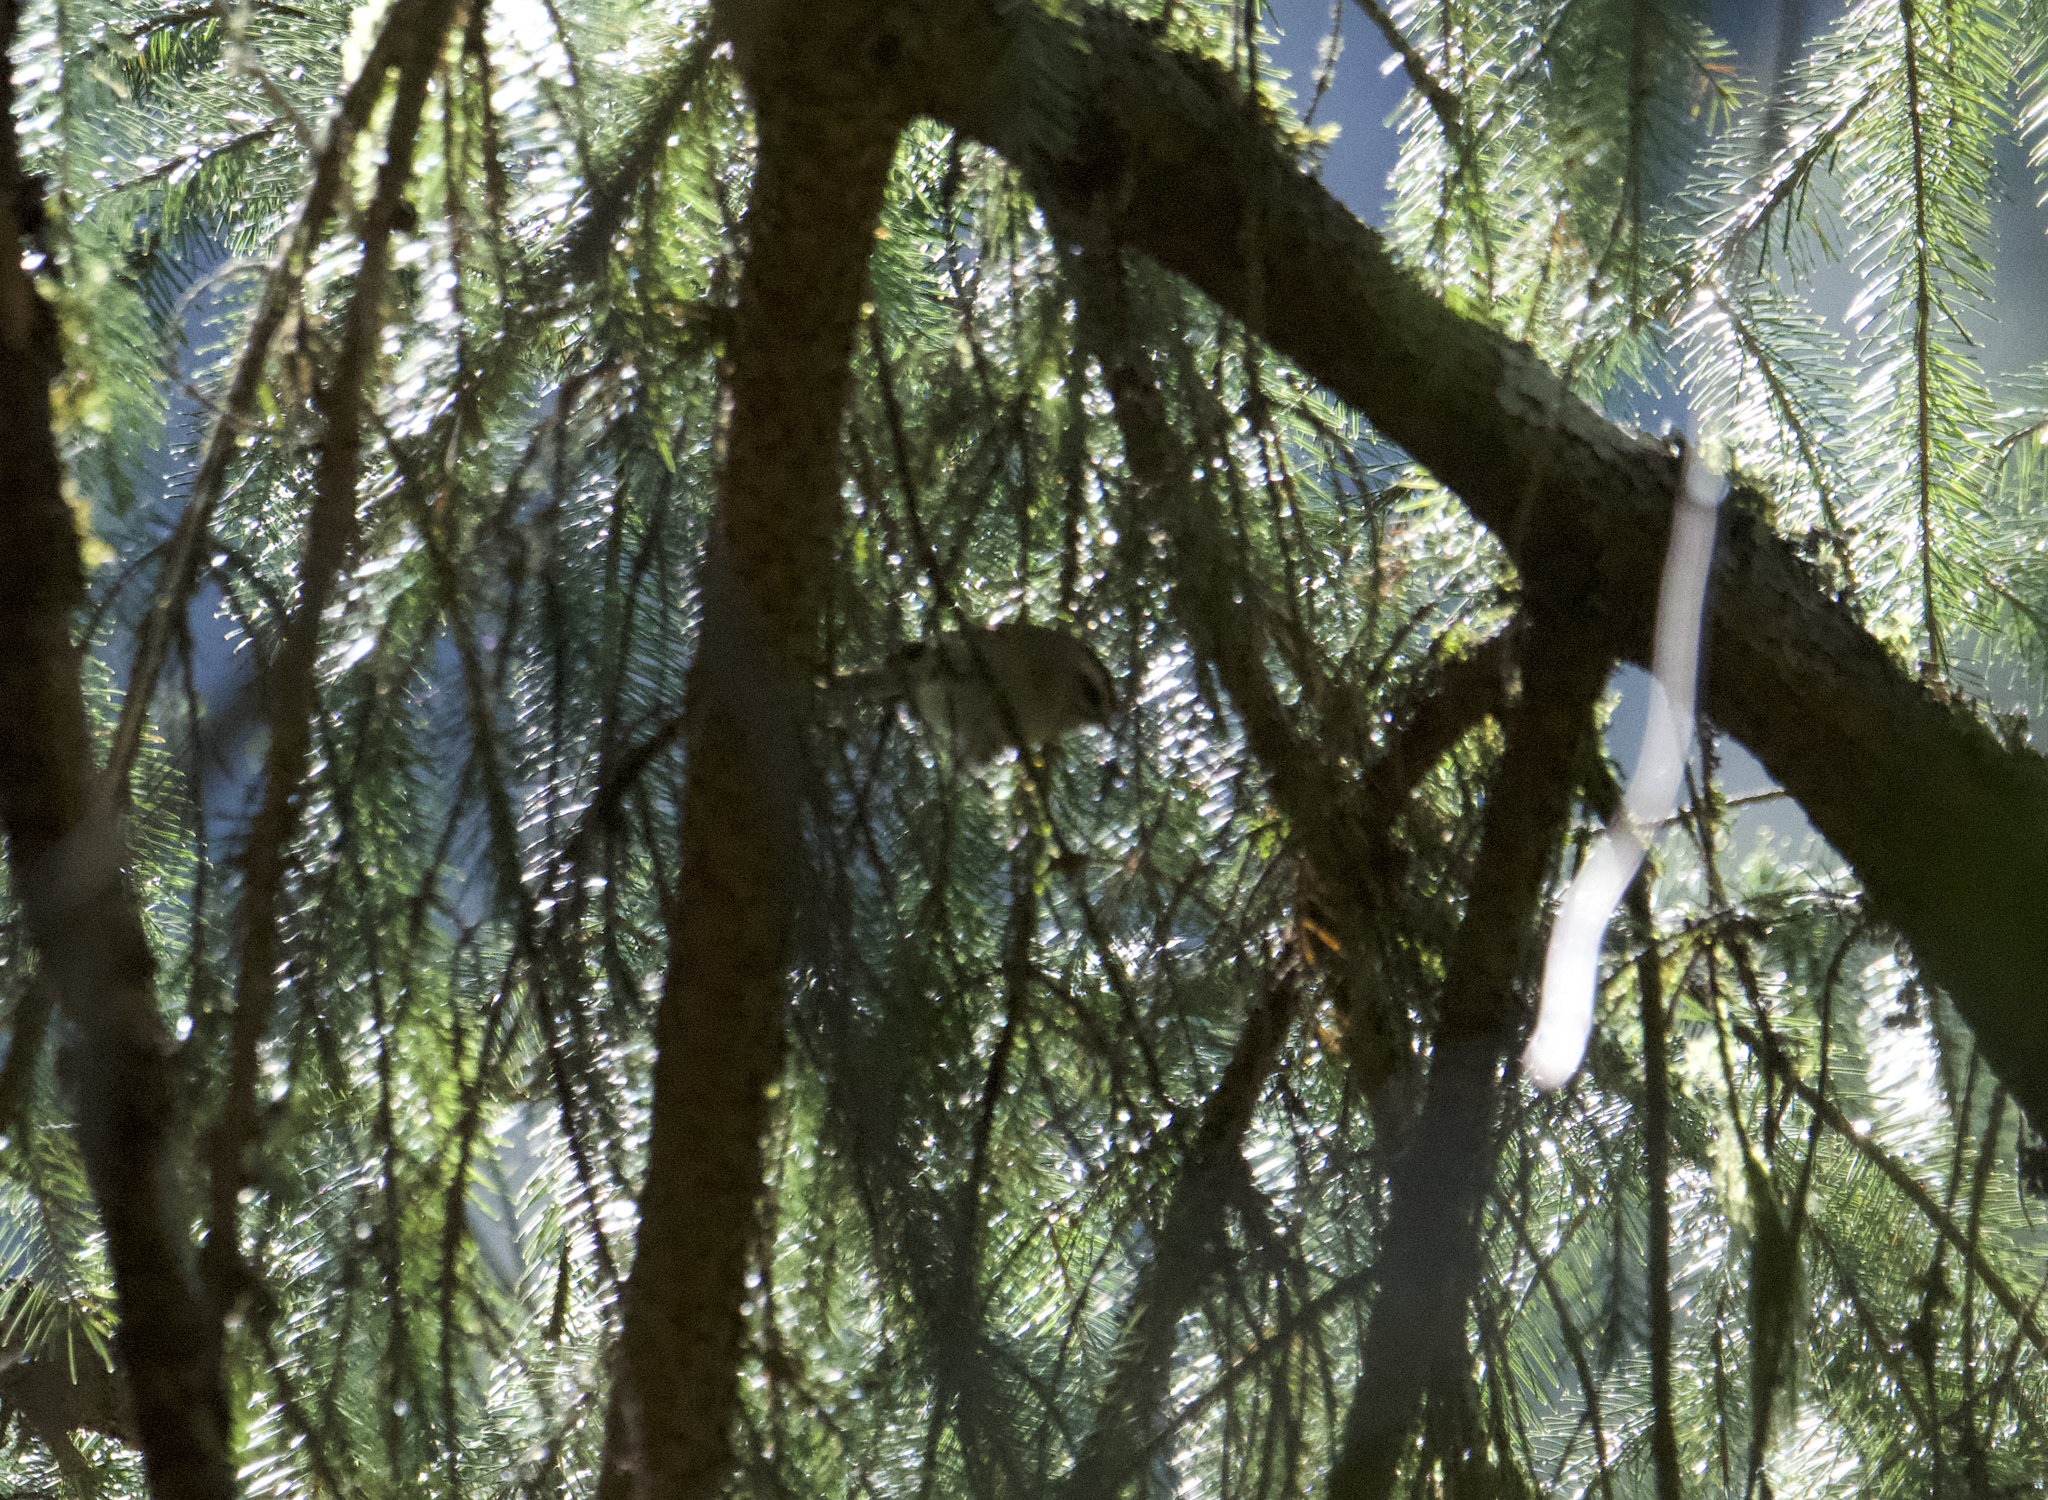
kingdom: Animalia
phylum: Chordata
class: Aves
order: Passeriformes
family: Regulidae
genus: Regulus
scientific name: Regulus satrapa
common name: Golden-crowned kinglet
